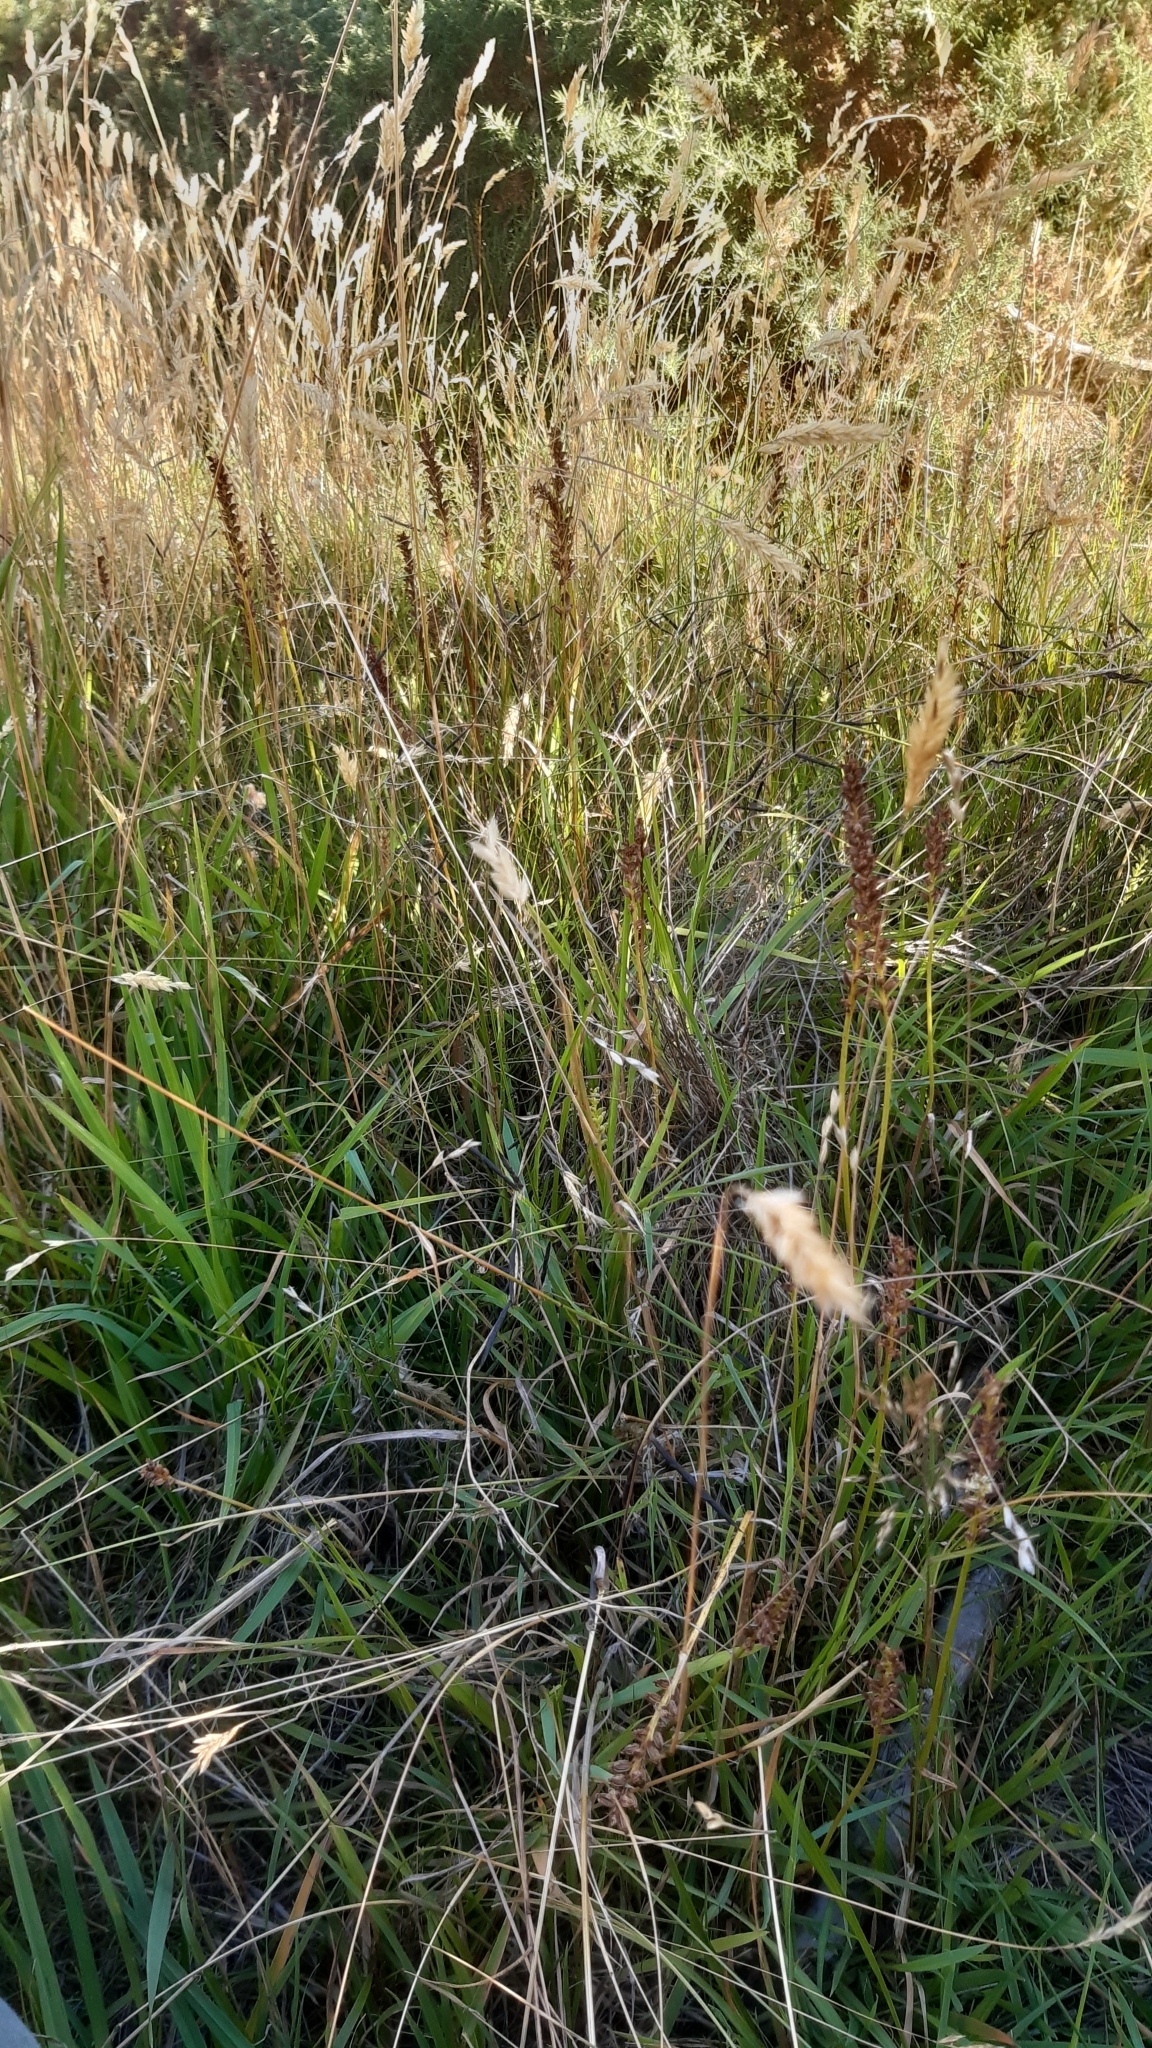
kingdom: Plantae
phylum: Tracheophyta
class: Liliopsida
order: Asparagales
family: Orchidaceae
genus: Microtis
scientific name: Microtis unifolia
